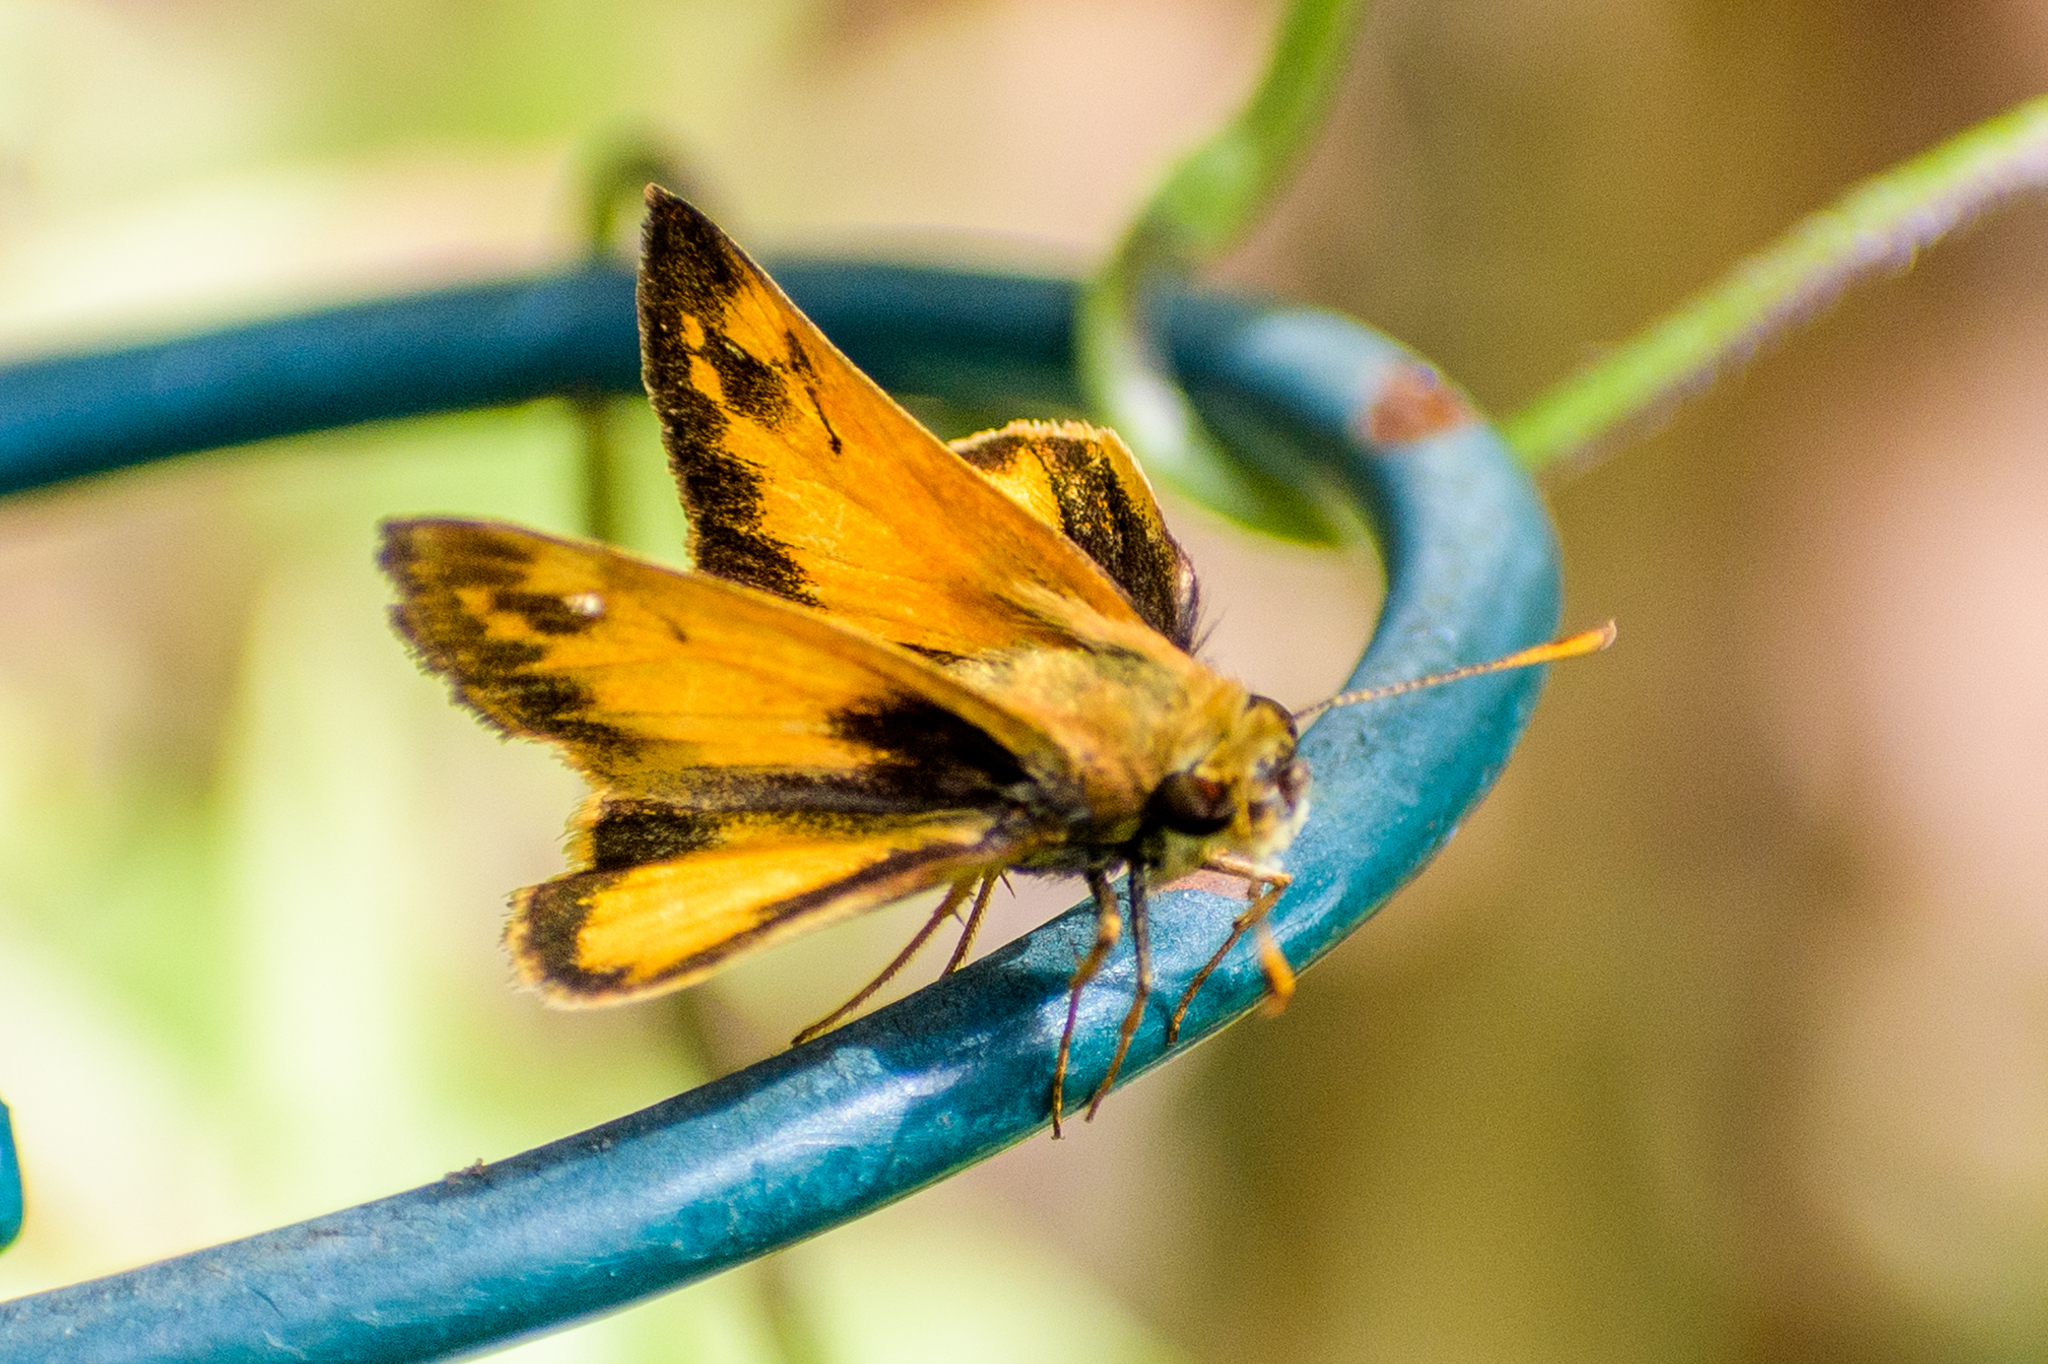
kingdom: Animalia
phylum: Arthropoda
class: Insecta
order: Lepidoptera
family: Hesperiidae
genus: Lon
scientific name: Lon zabulon
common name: Zabulon skipper
